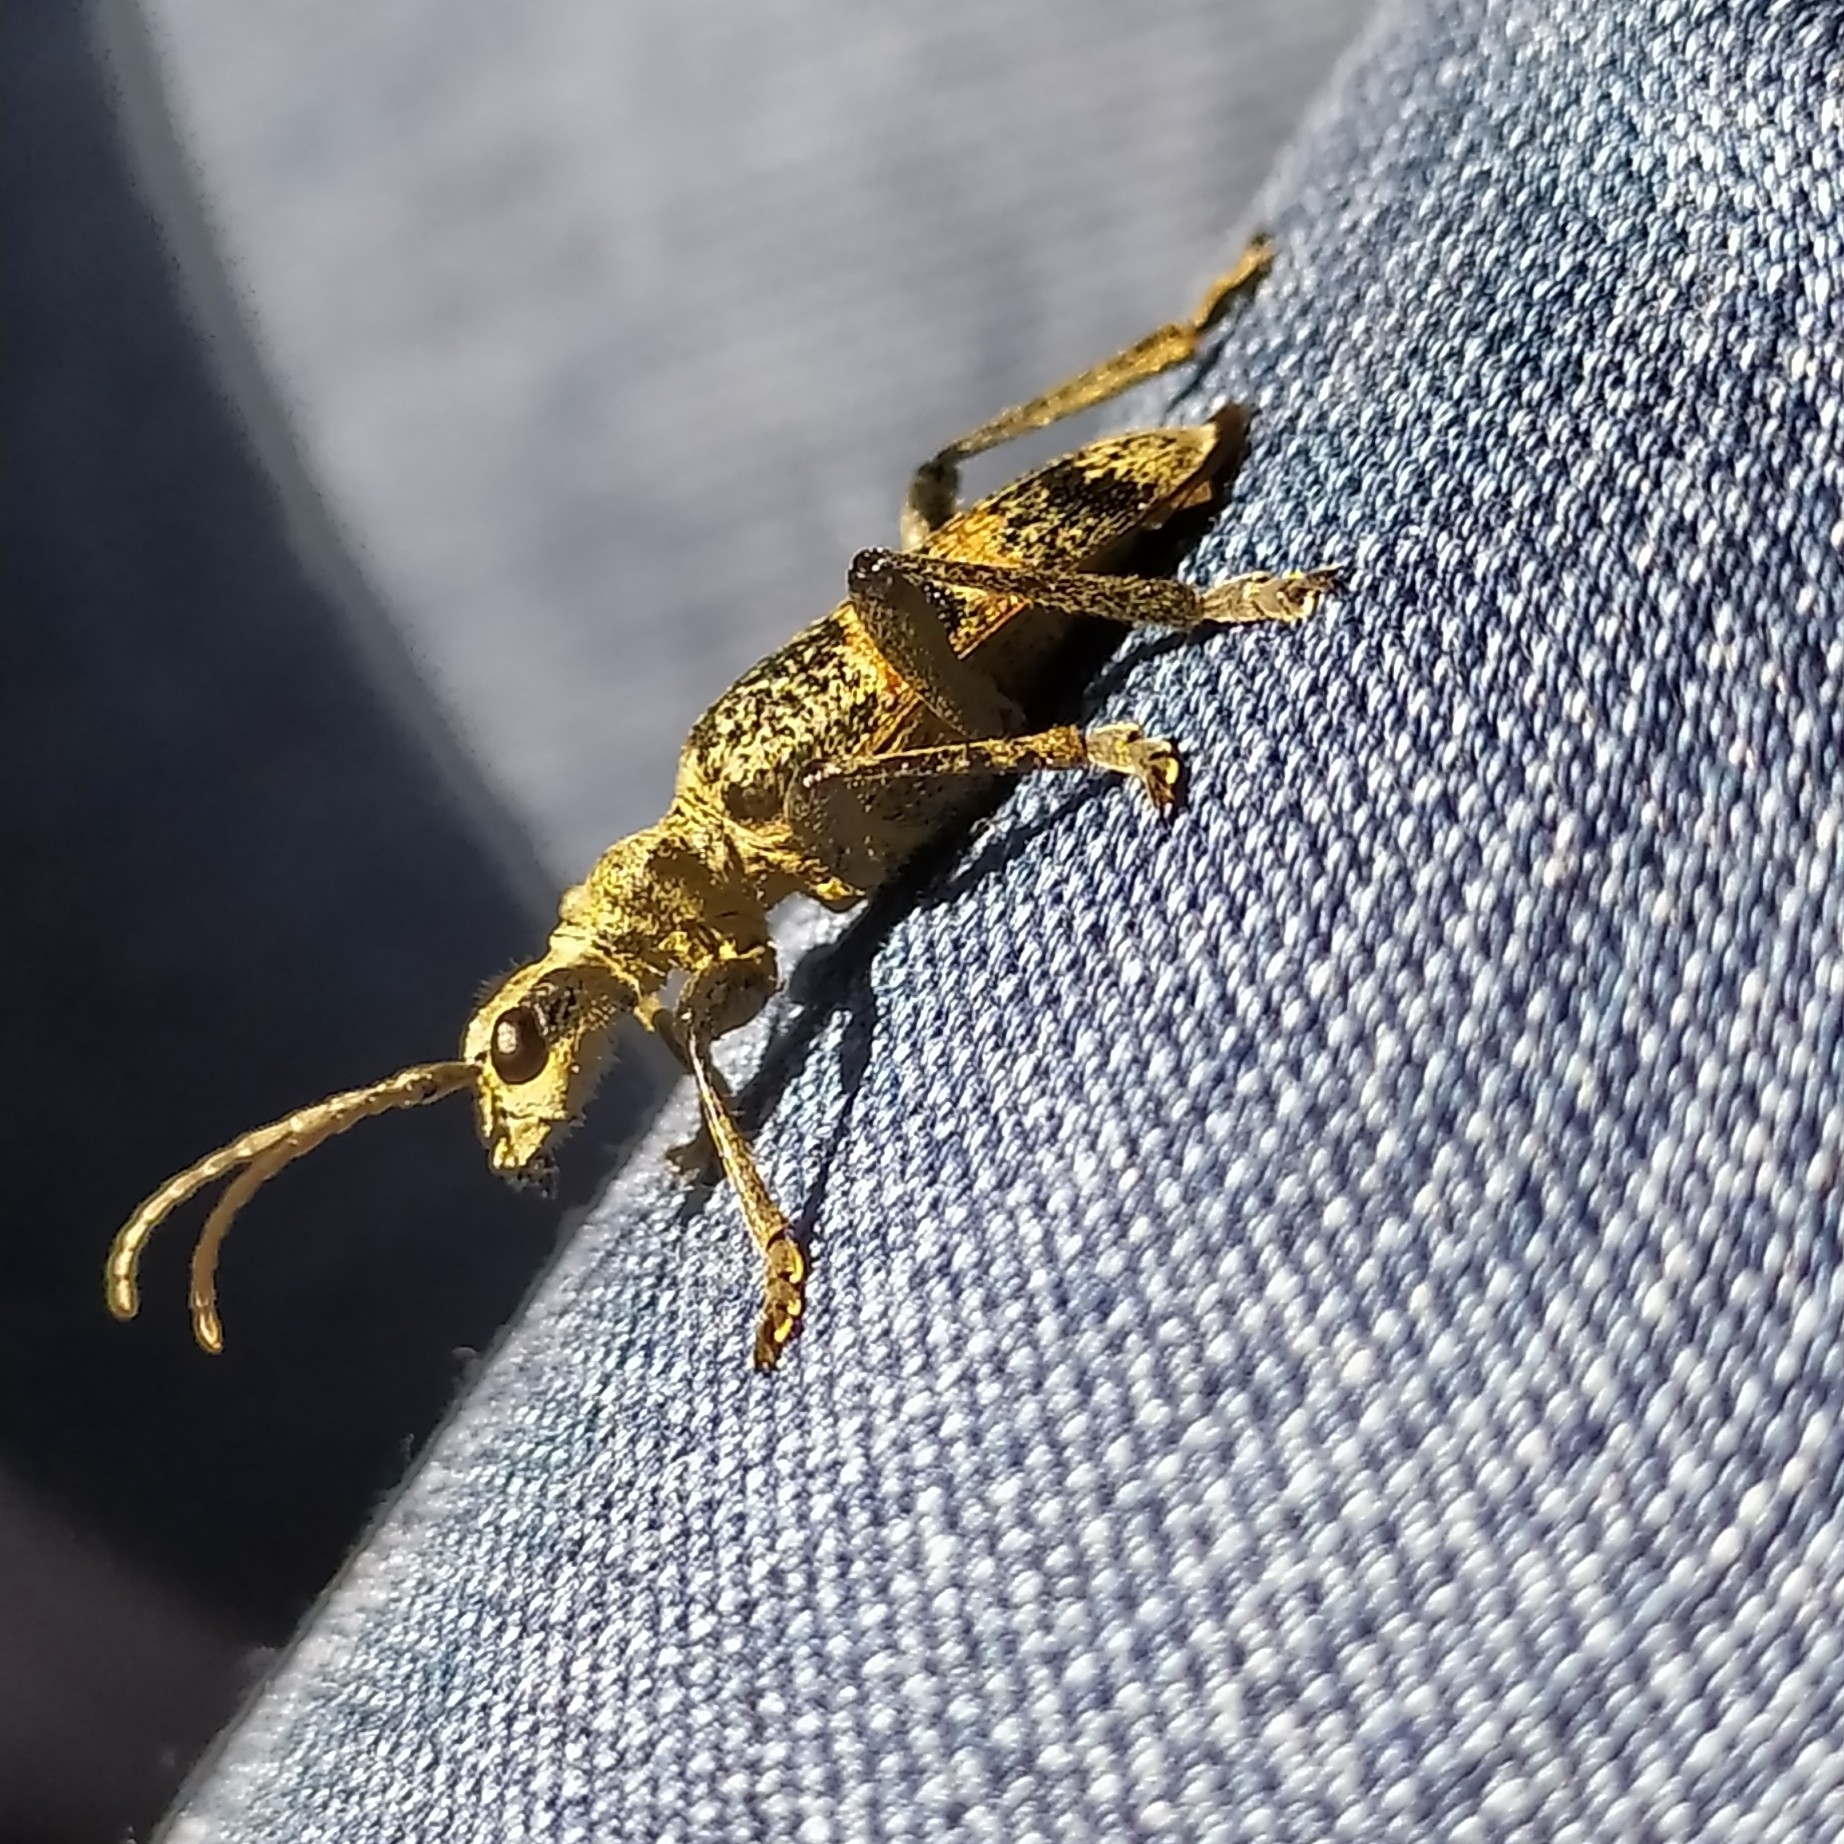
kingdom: Animalia
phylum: Arthropoda
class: Insecta
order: Coleoptera
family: Cerambycidae
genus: Rhagium
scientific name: Rhagium mordax
